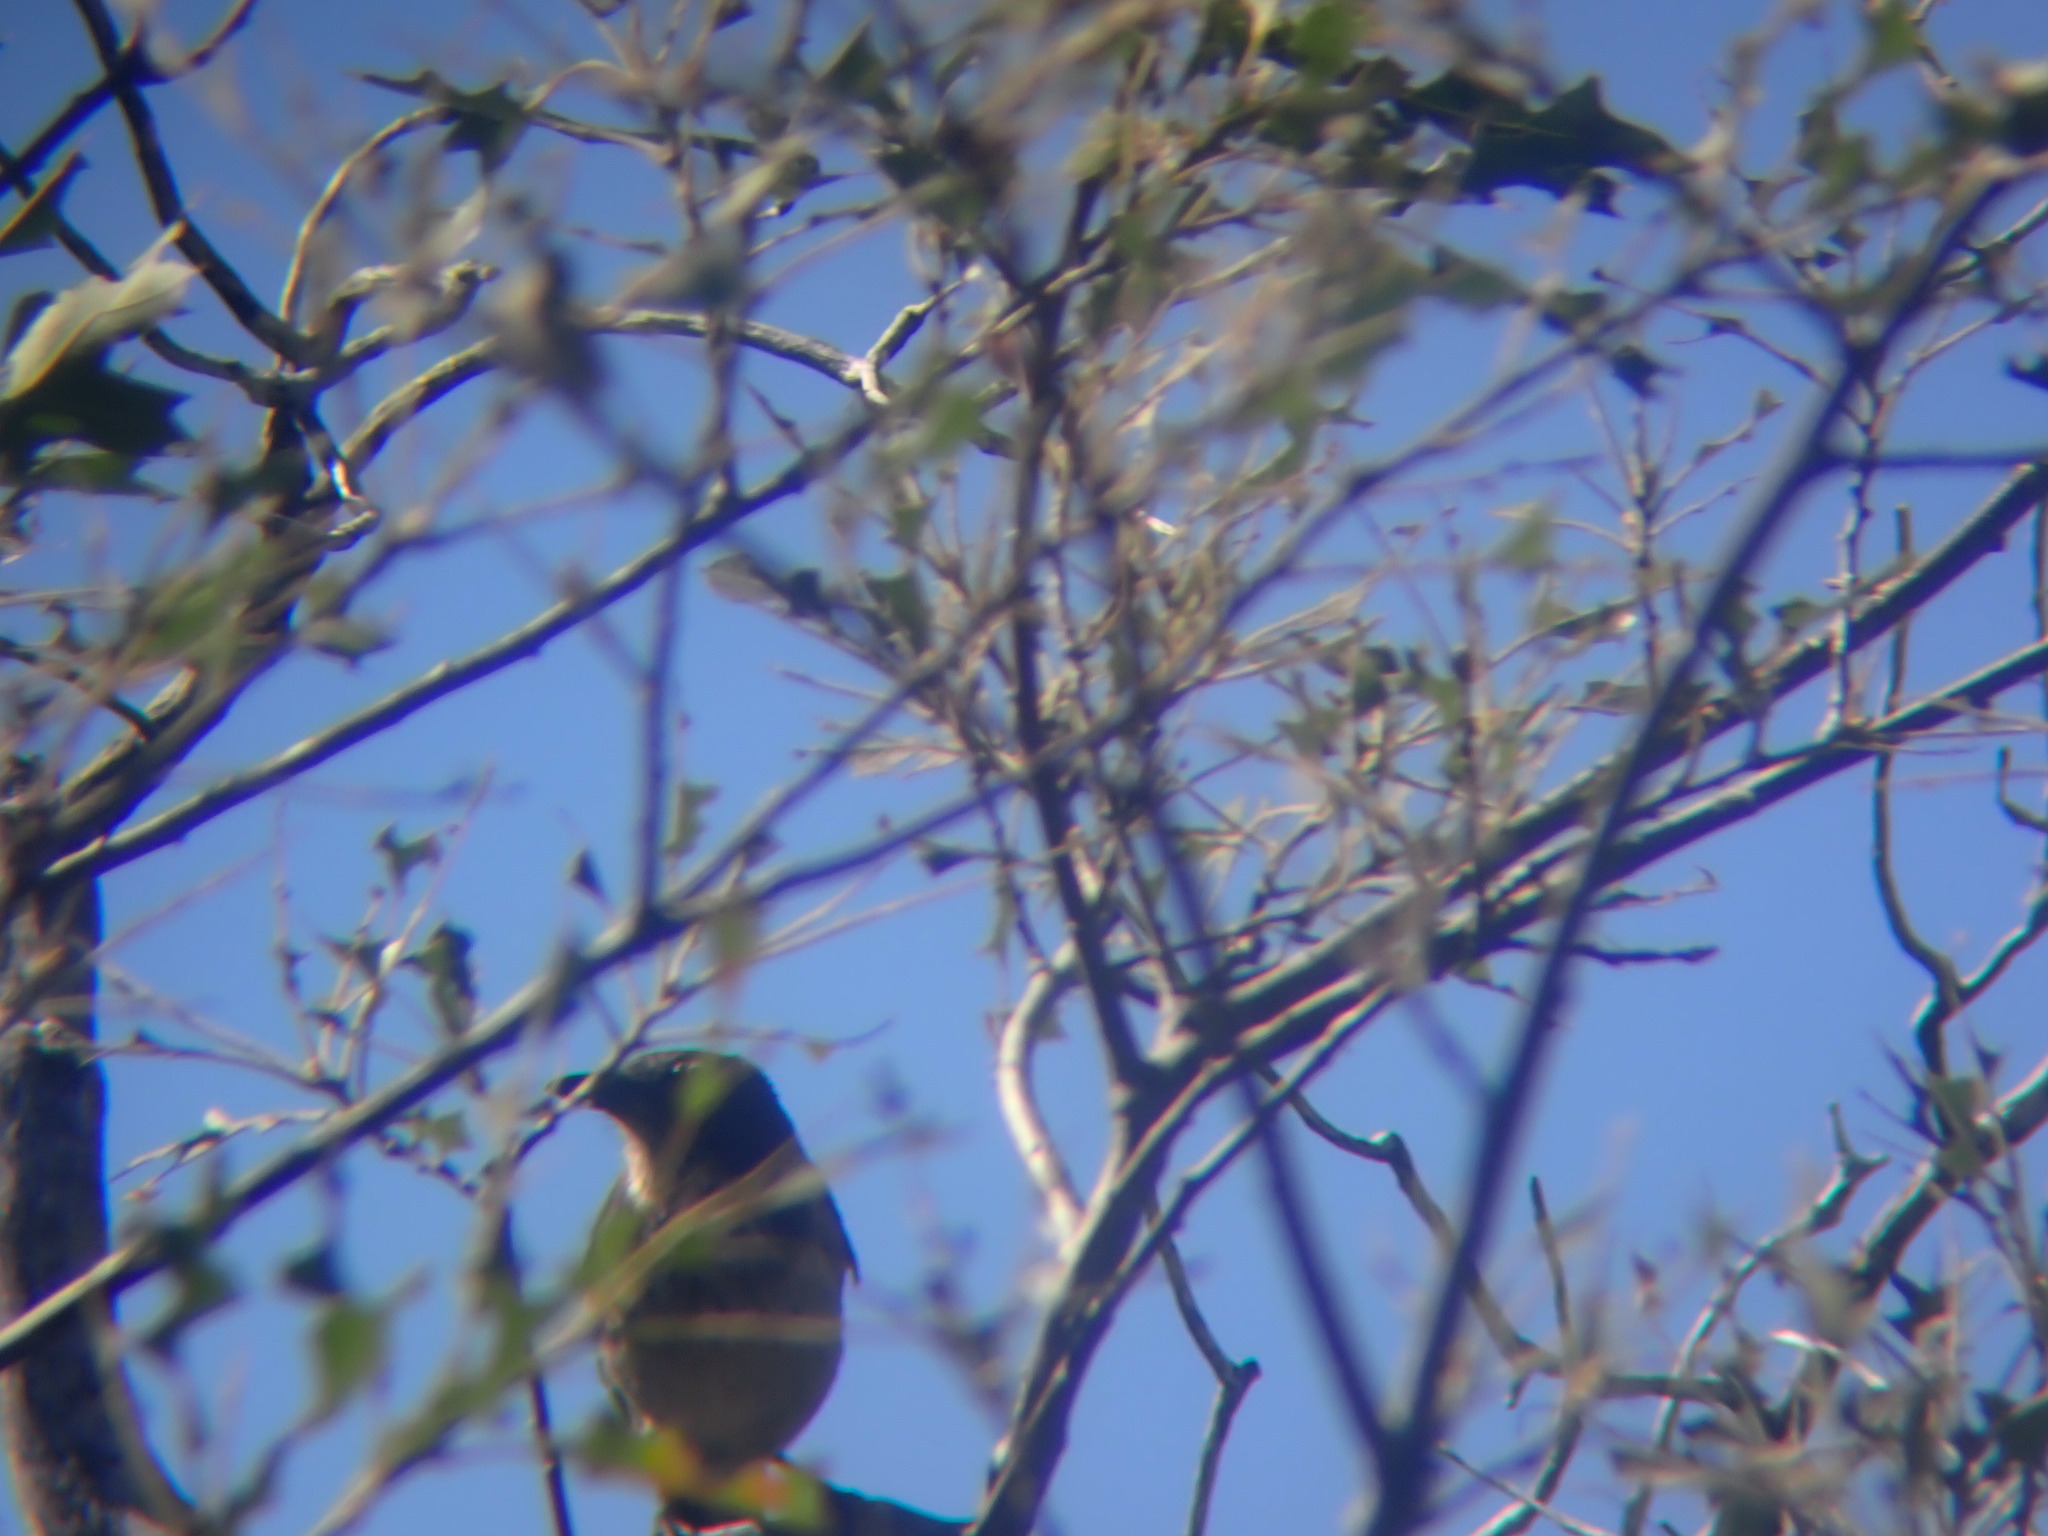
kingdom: Animalia
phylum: Chordata
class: Aves
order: Passeriformes
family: Corvidae
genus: Aphelocoma
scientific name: Aphelocoma californica
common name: California scrub-jay
